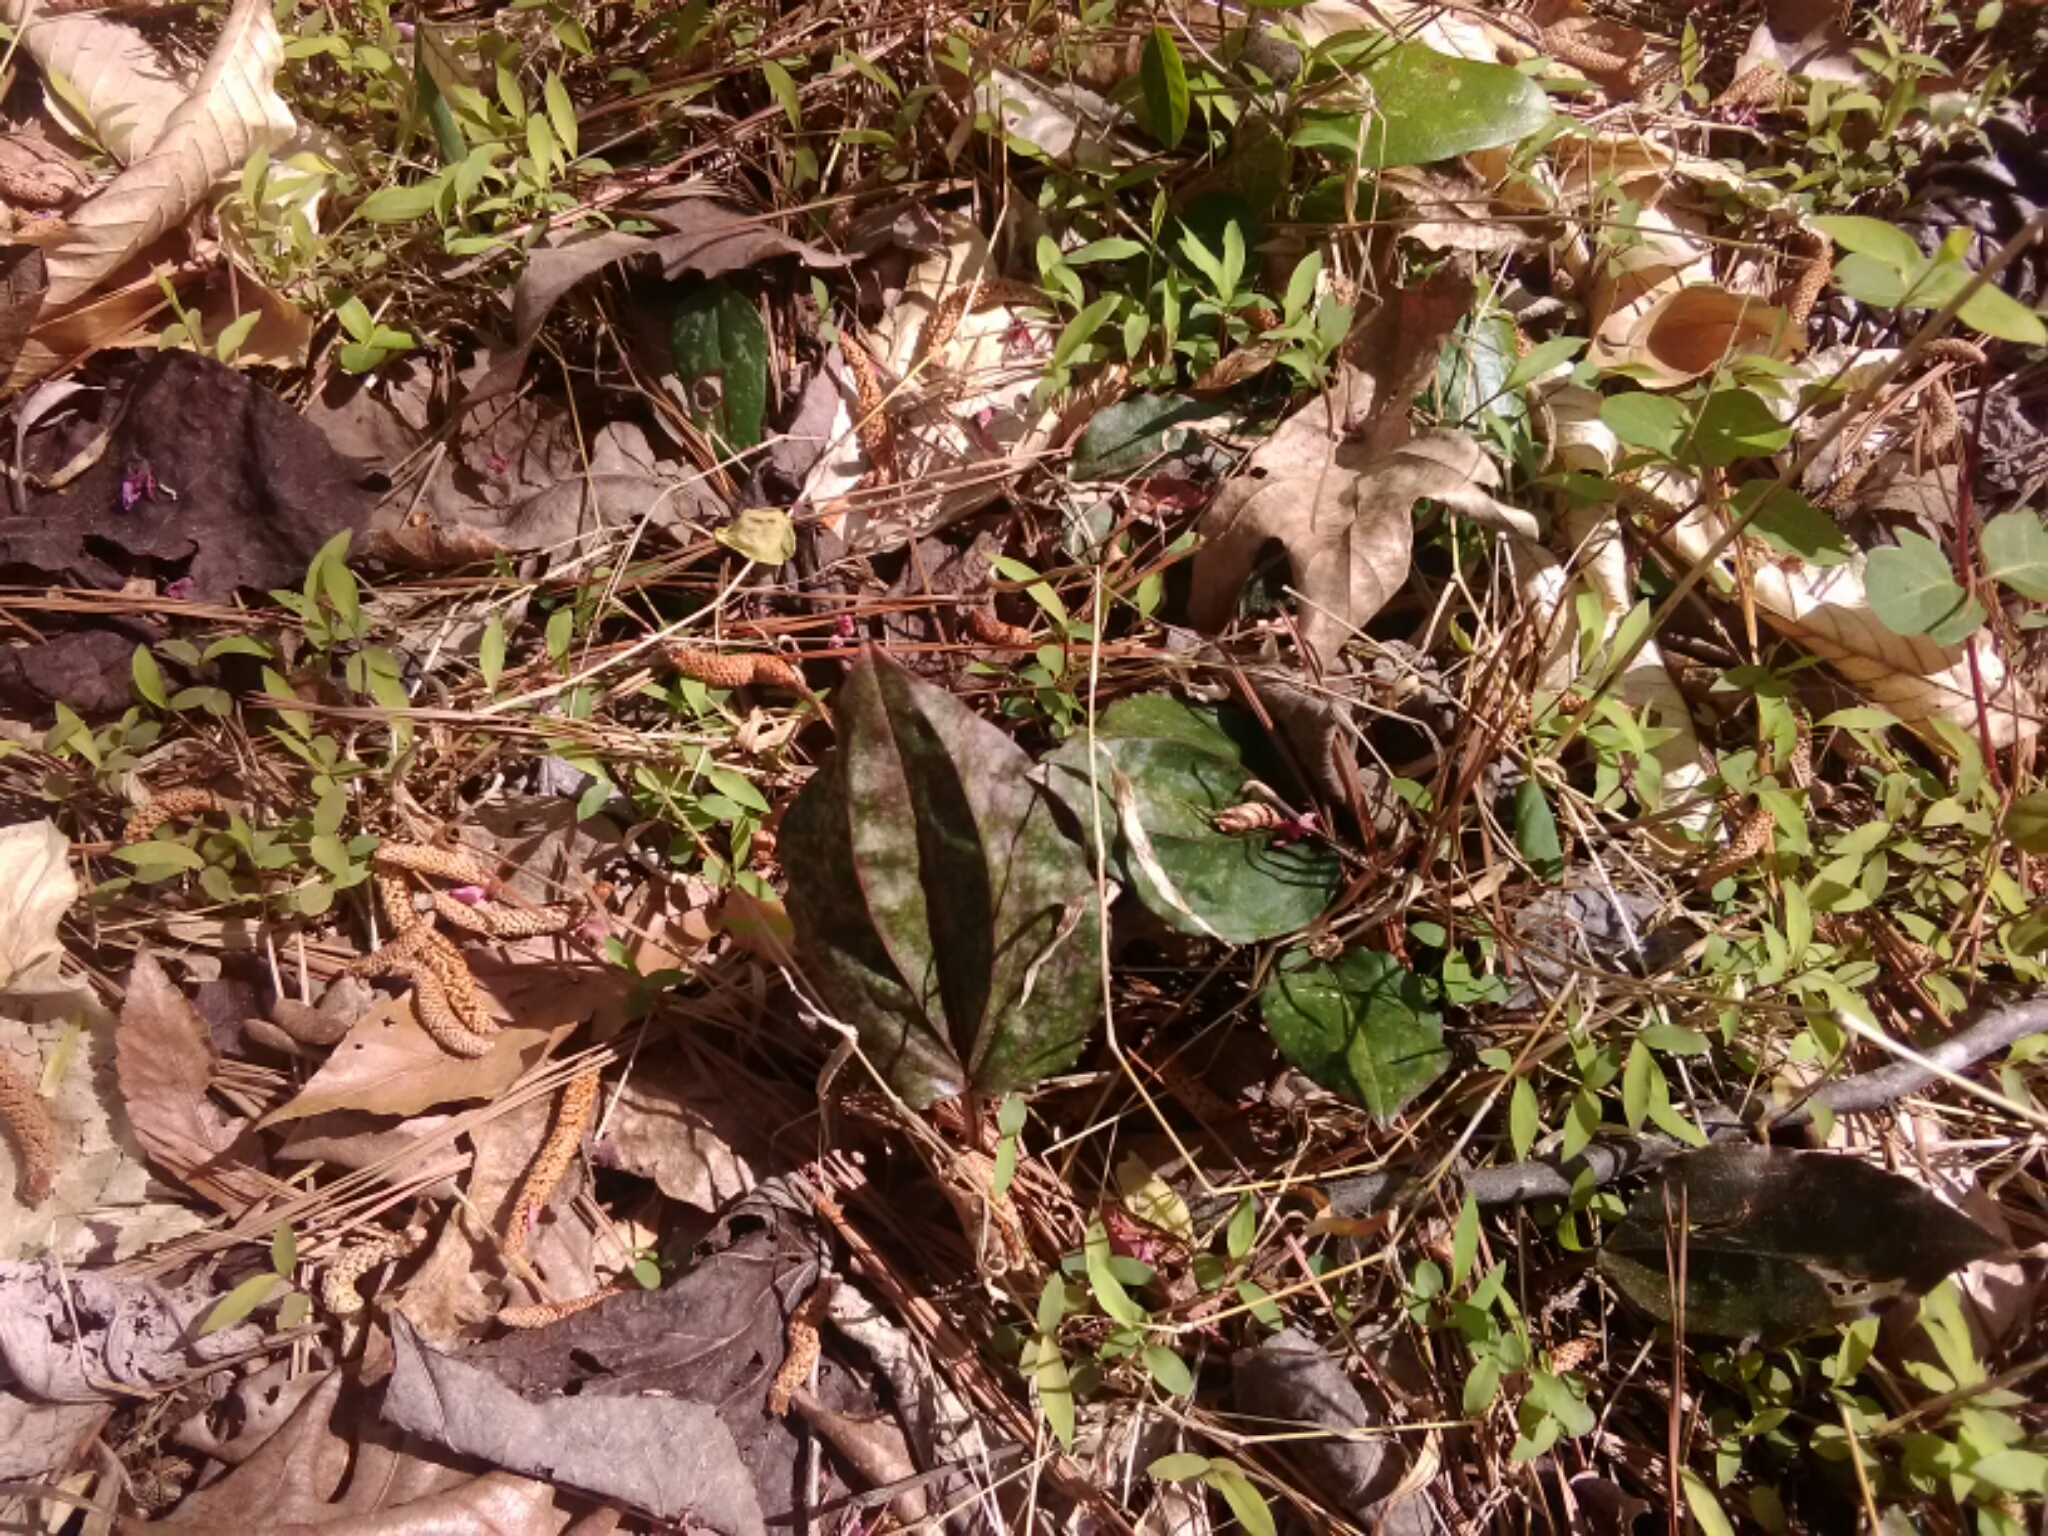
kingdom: Plantae
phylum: Tracheophyta
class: Liliopsida
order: Asparagales
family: Orchidaceae
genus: Tipularia
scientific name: Tipularia discolor
